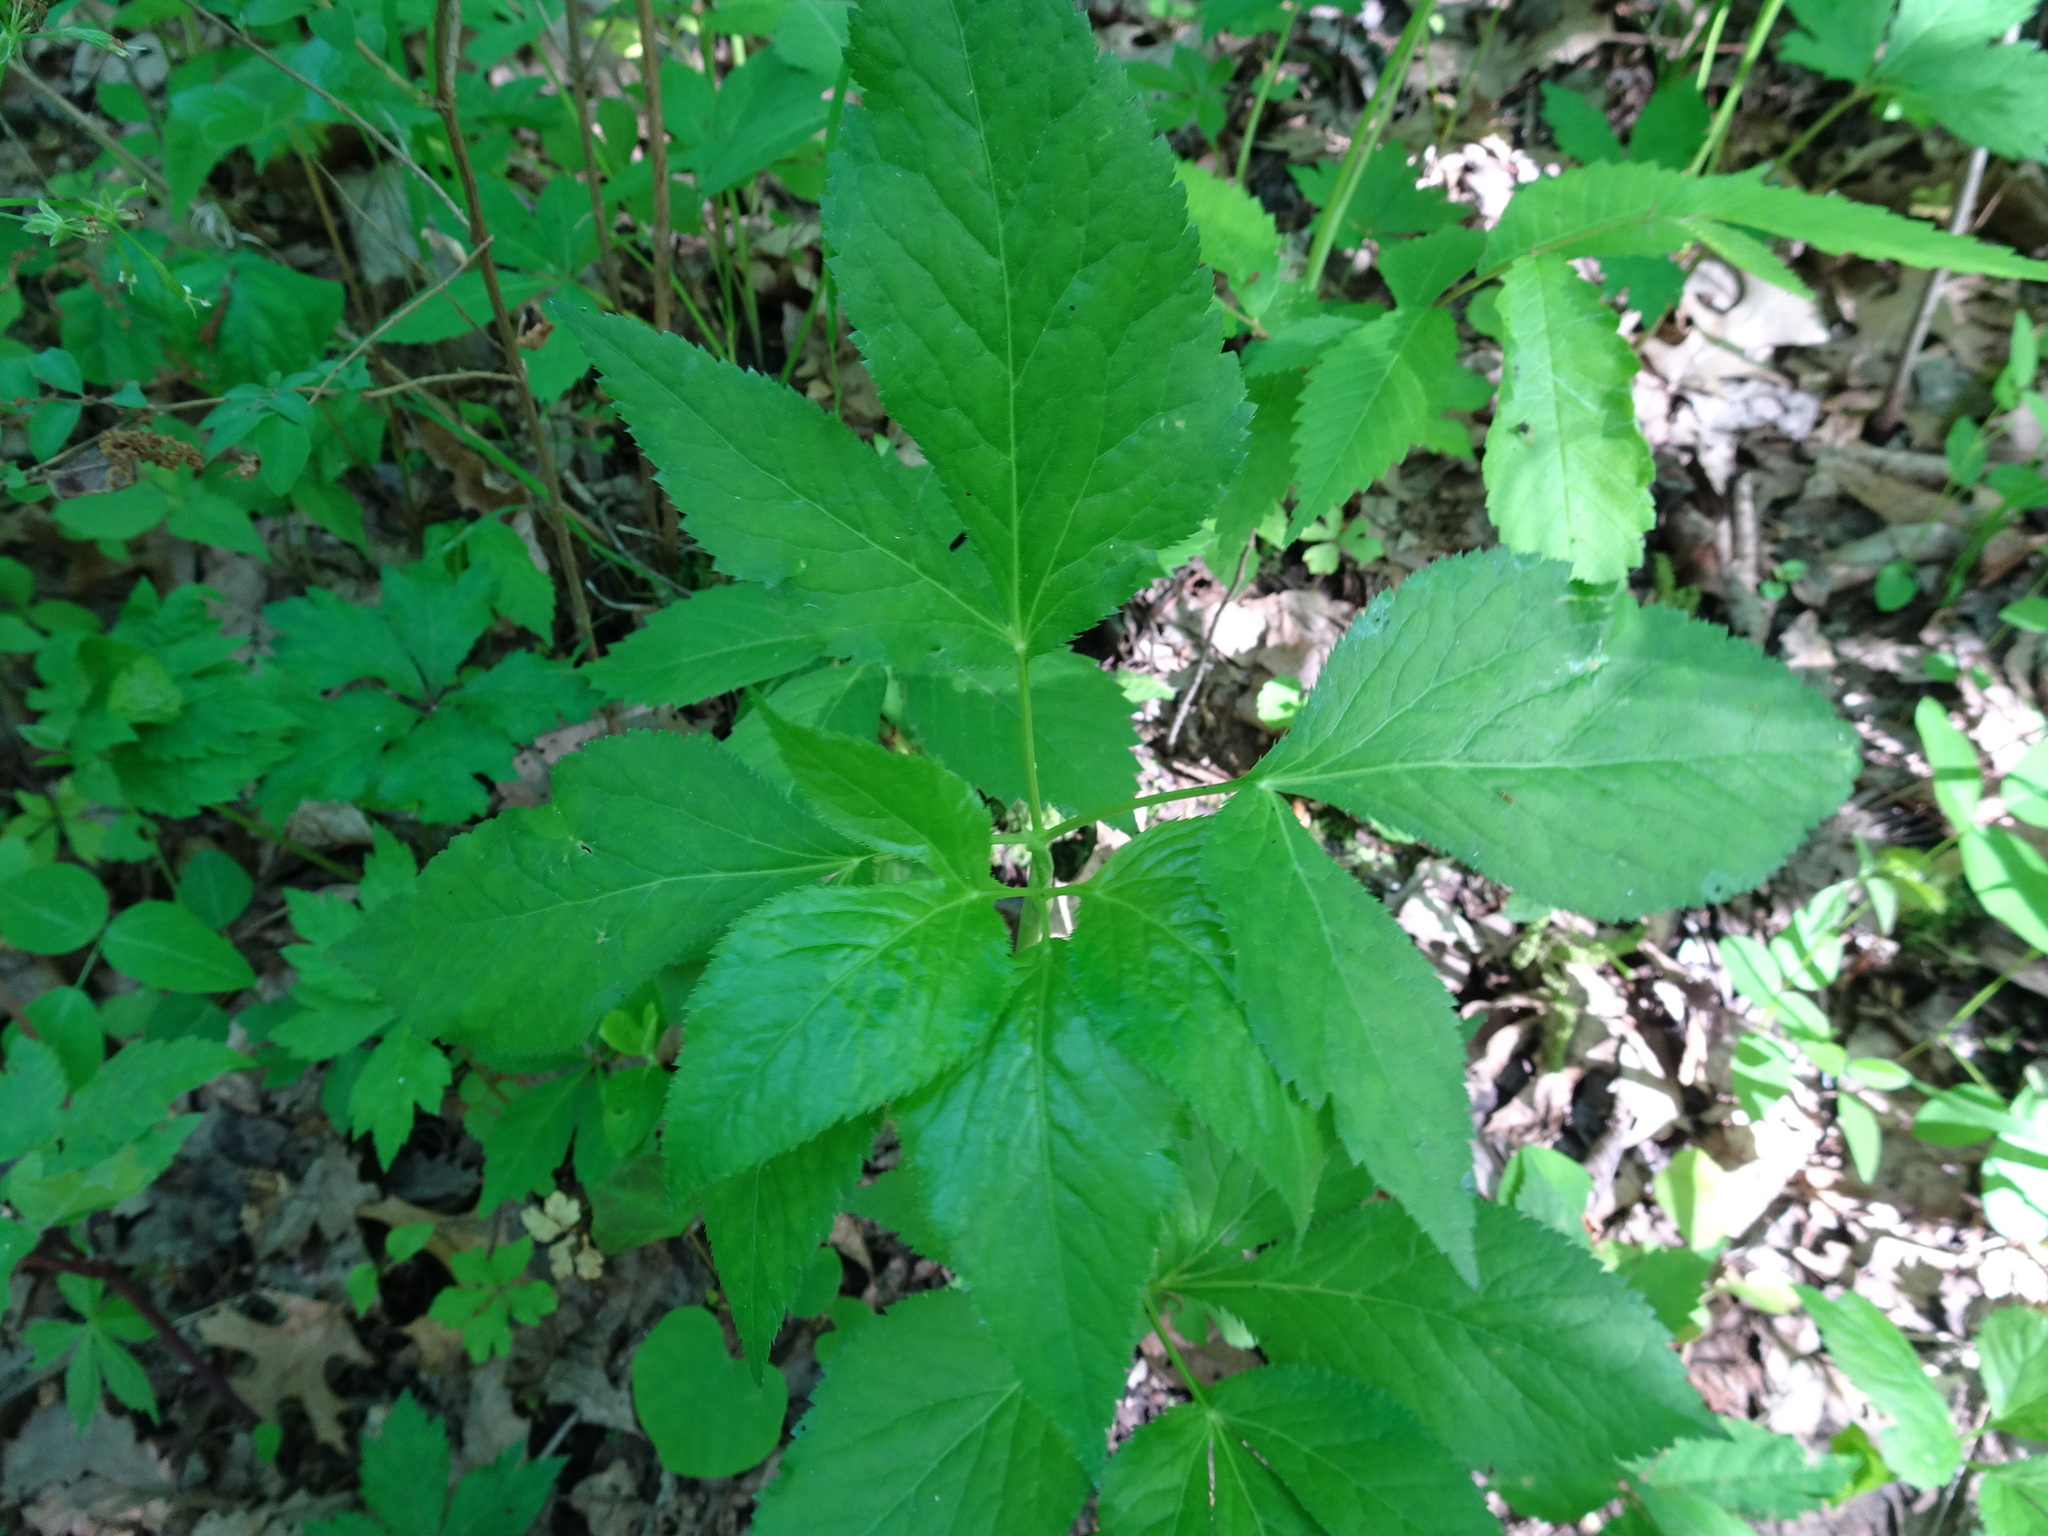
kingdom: Plantae
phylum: Tracheophyta
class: Magnoliopsida
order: Apiales
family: Apiaceae
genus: Osmorhiza
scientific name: Osmorhiza longistylis
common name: Smooth sweet cicely
